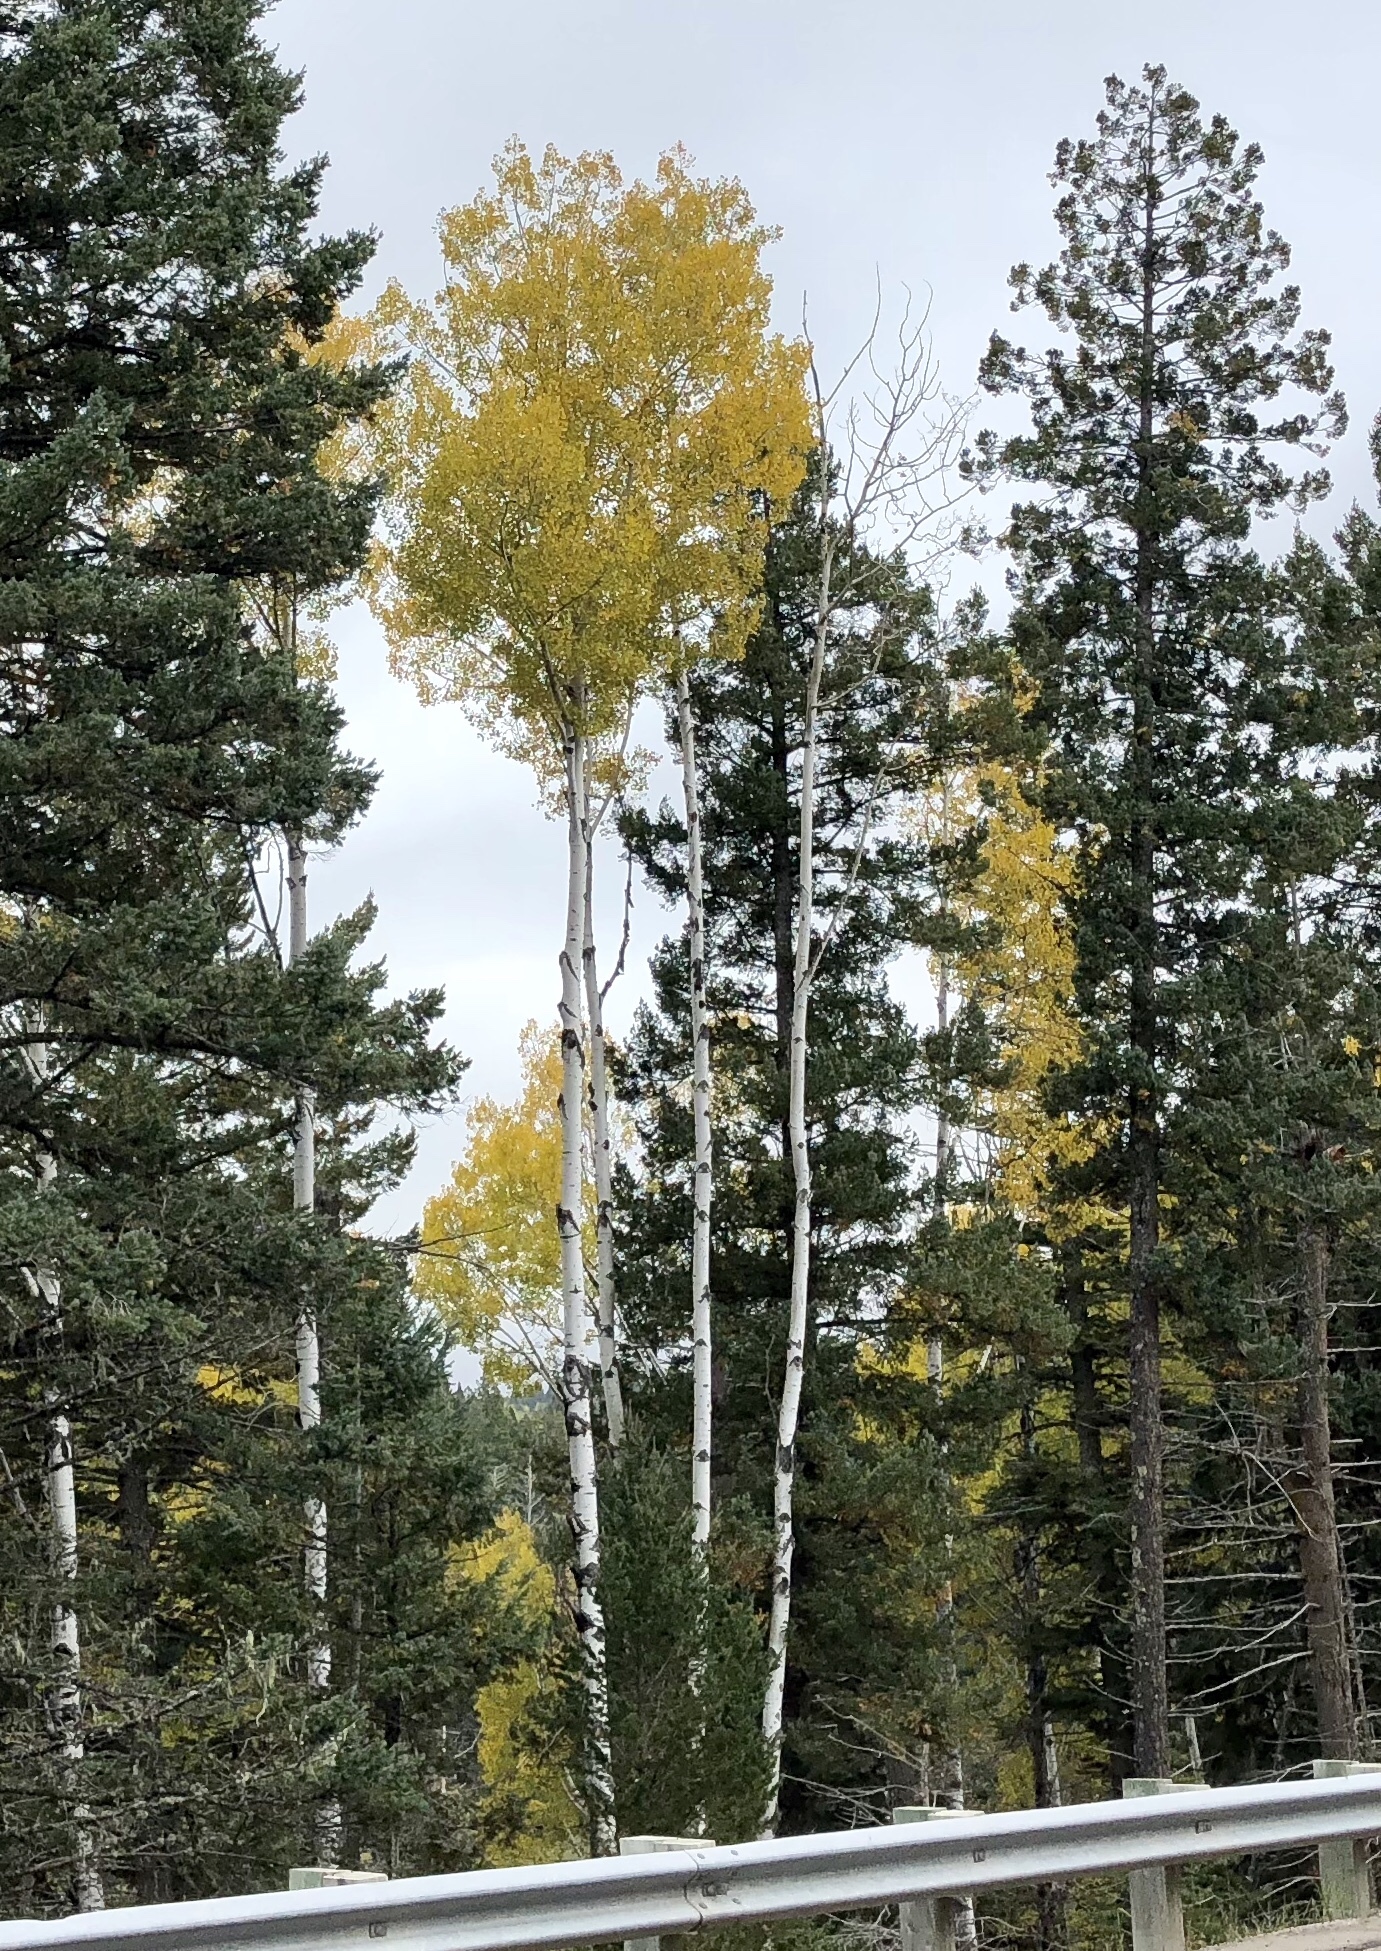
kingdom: Plantae
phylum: Tracheophyta
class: Magnoliopsida
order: Malpighiales
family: Salicaceae
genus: Populus
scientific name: Populus tremuloides
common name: Quaking aspen
